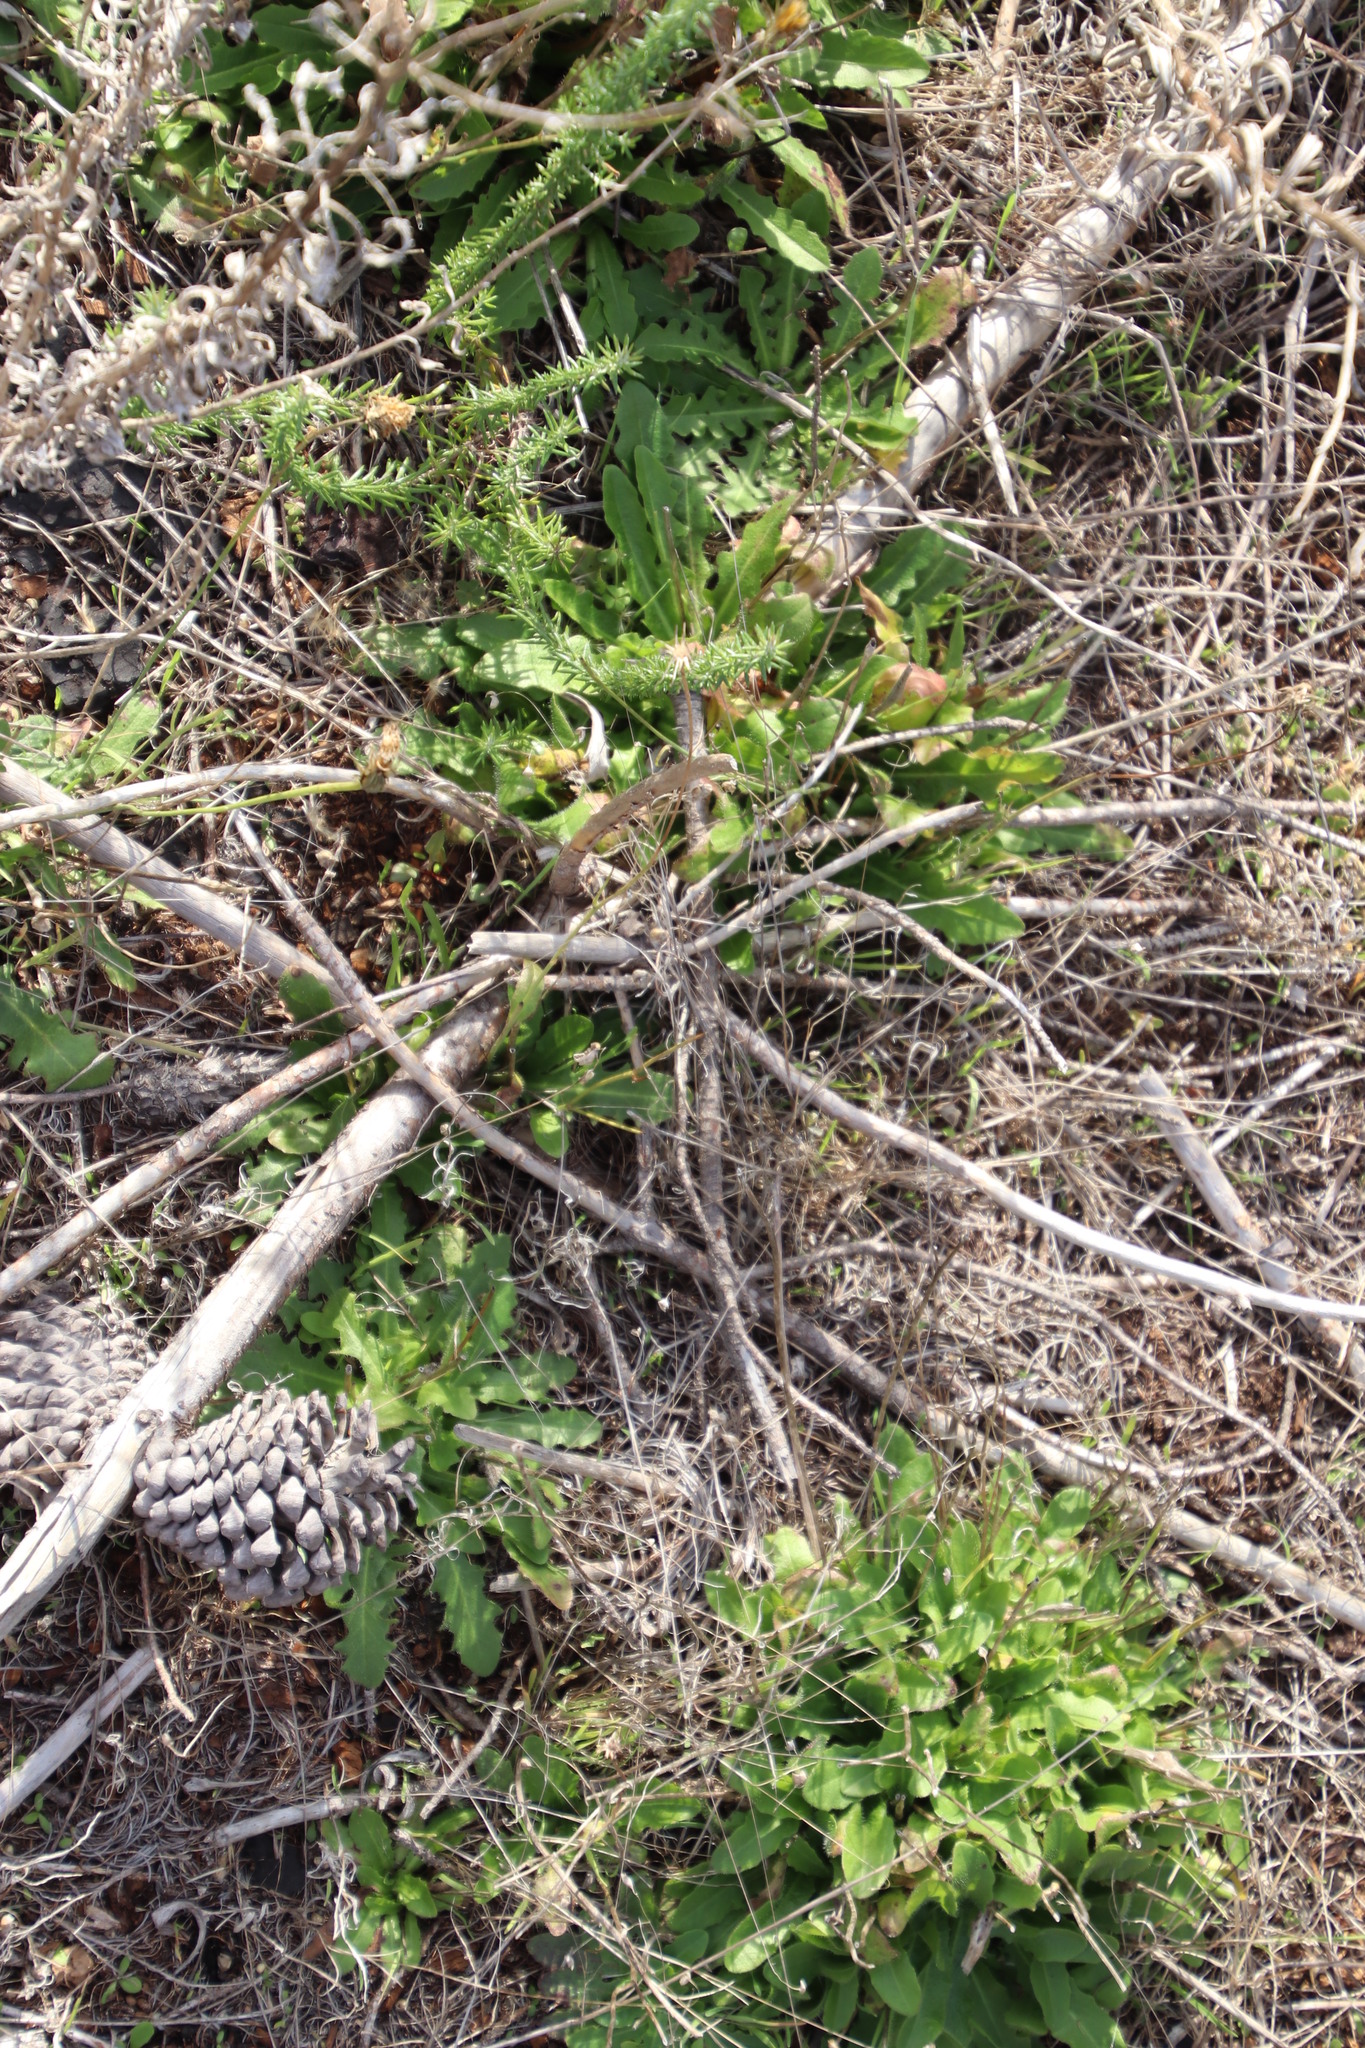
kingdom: Plantae
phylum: Tracheophyta
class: Magnoliopsida
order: Asterales
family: Asteraceae
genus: Hypochaeris
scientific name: Hypochaeris radicata
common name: Flatweed
